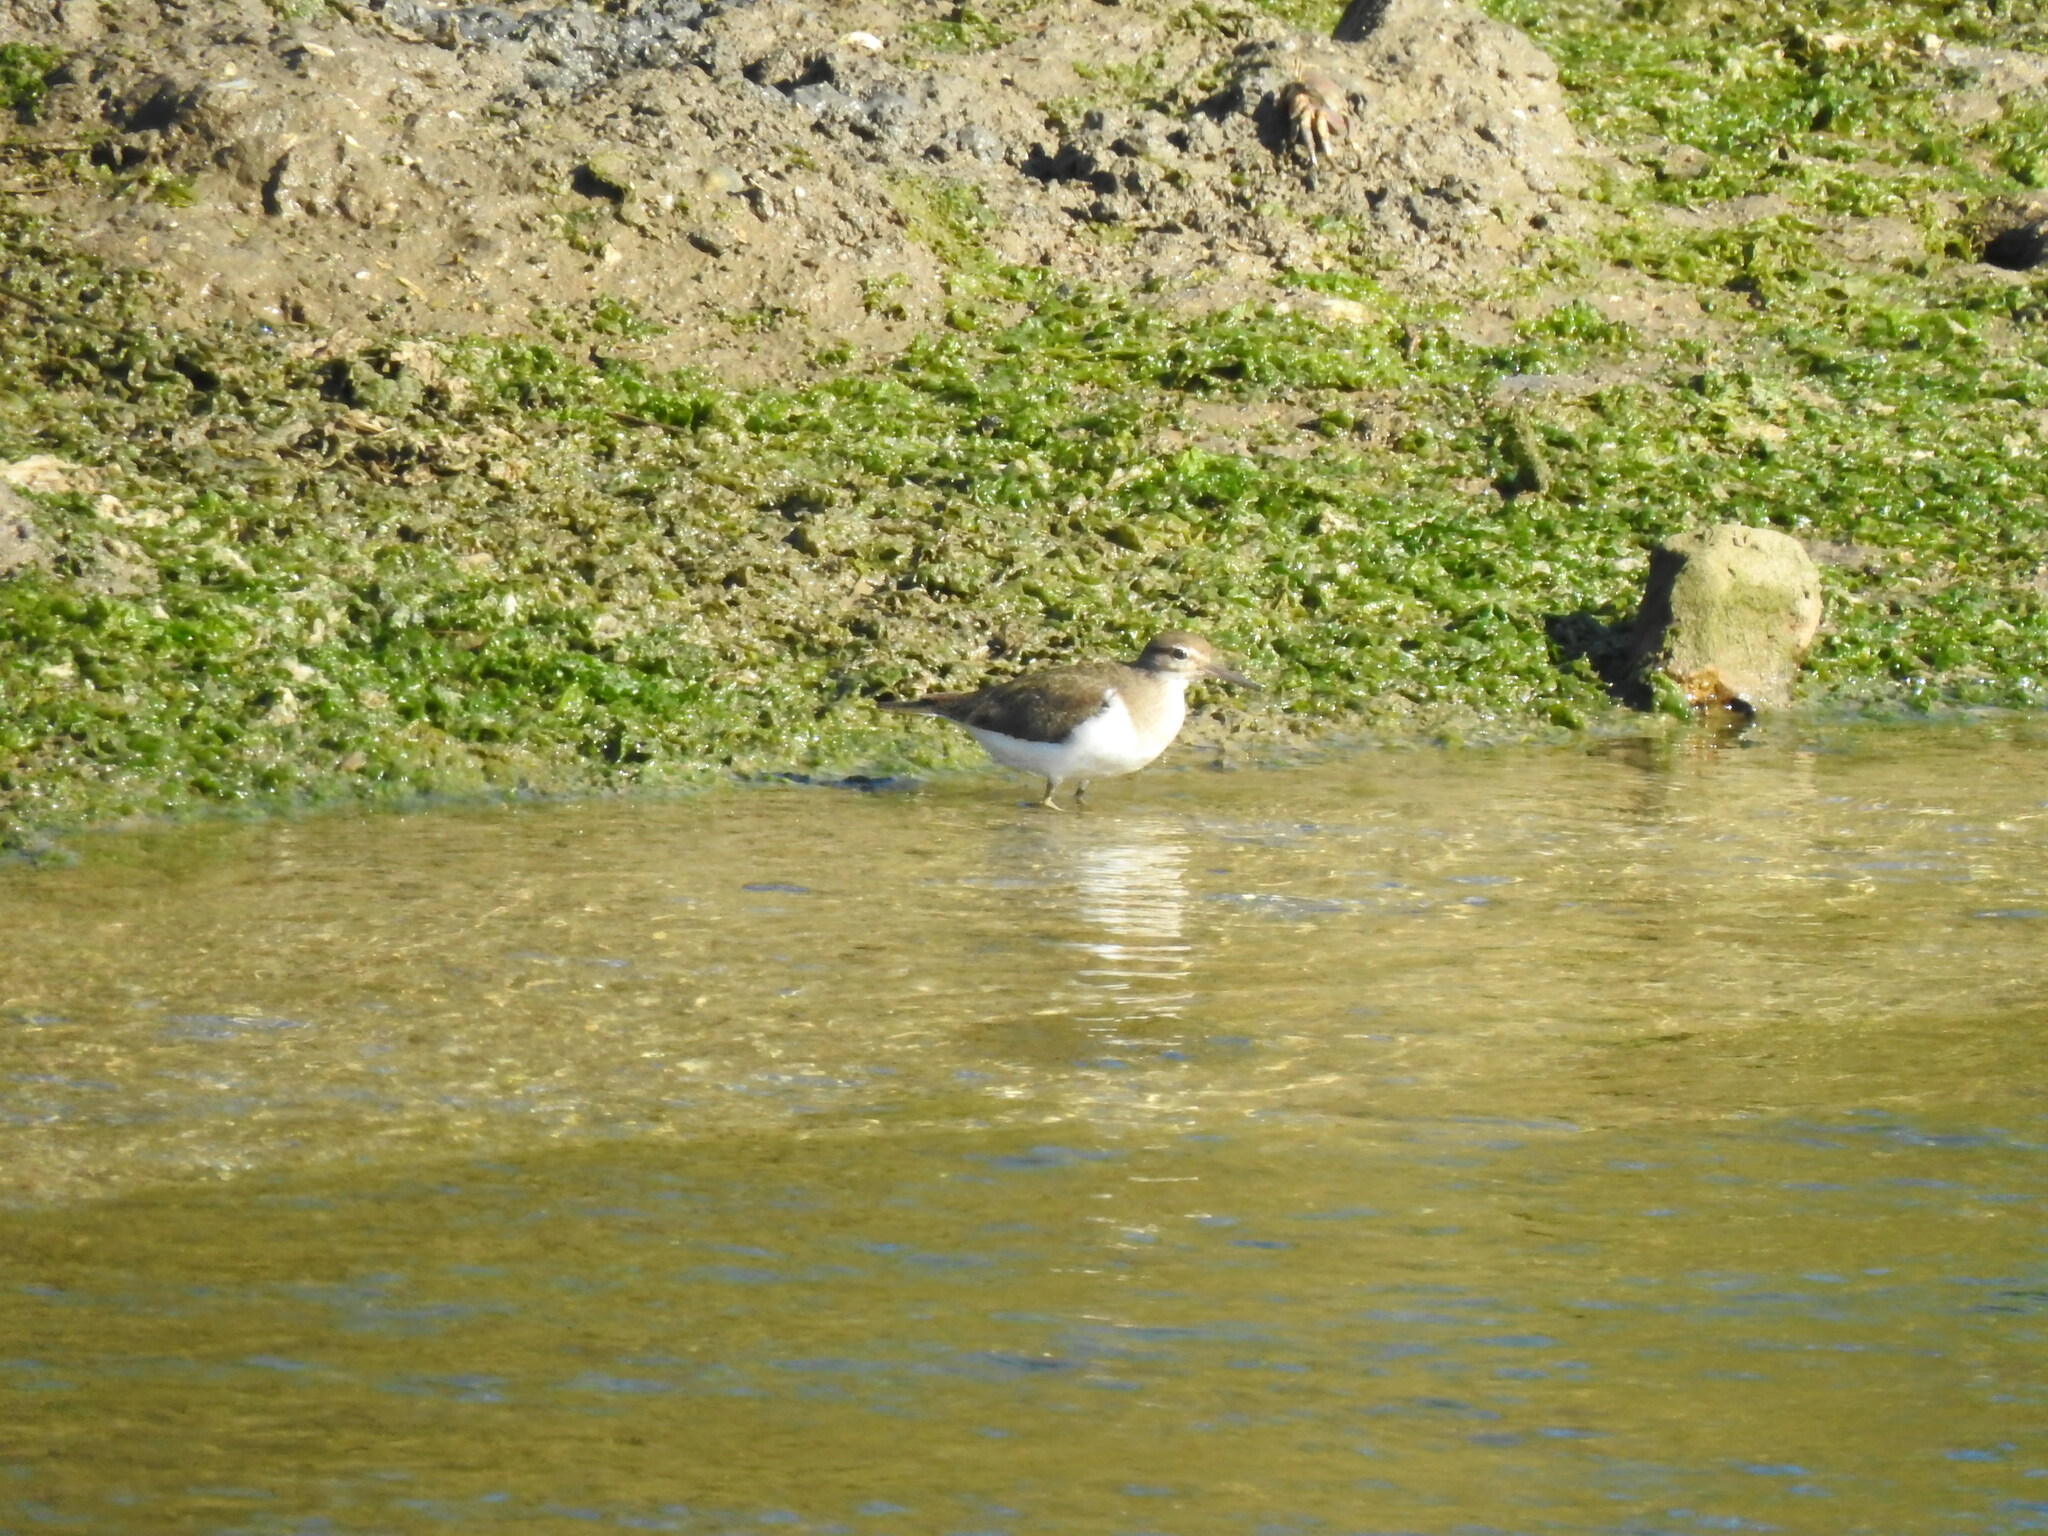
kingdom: Animalia
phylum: Chordata
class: Aves
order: Charadriiformes
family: Scolopacidae
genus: Actitis
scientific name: Actitis hypoleucos
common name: Common sandpiper
